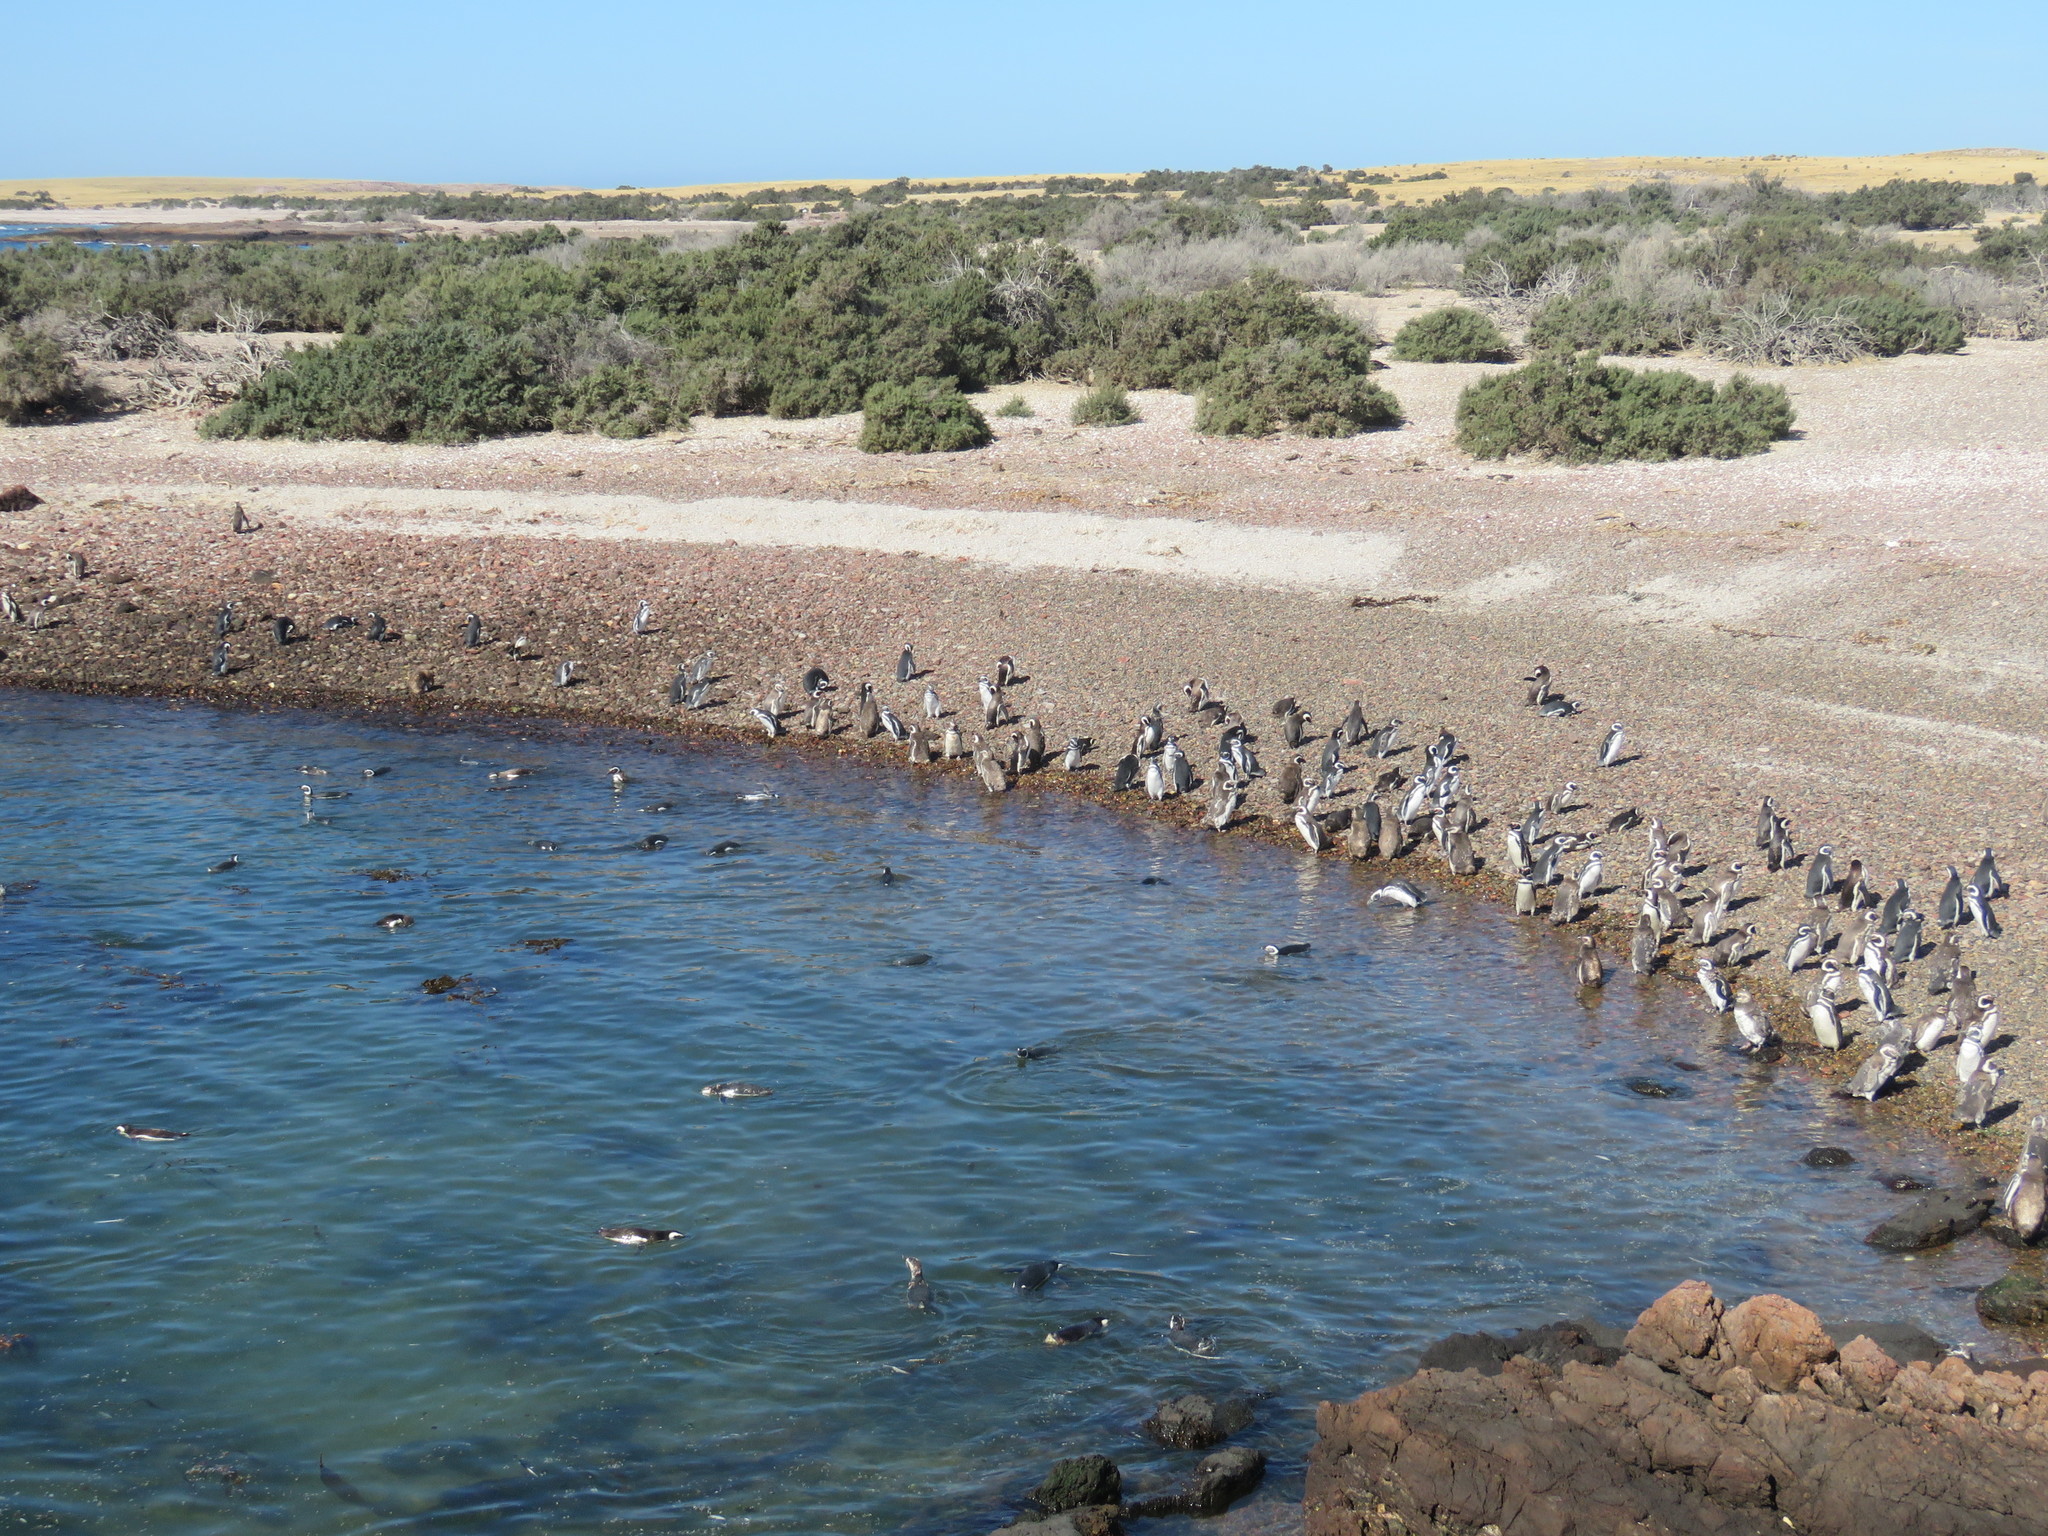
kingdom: Animalia
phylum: Chordata
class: Aves
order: Sphenisciformes
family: Spheniscidae
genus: Spheniscus
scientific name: Spheniscus magellanicus
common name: Magellanic penguin
